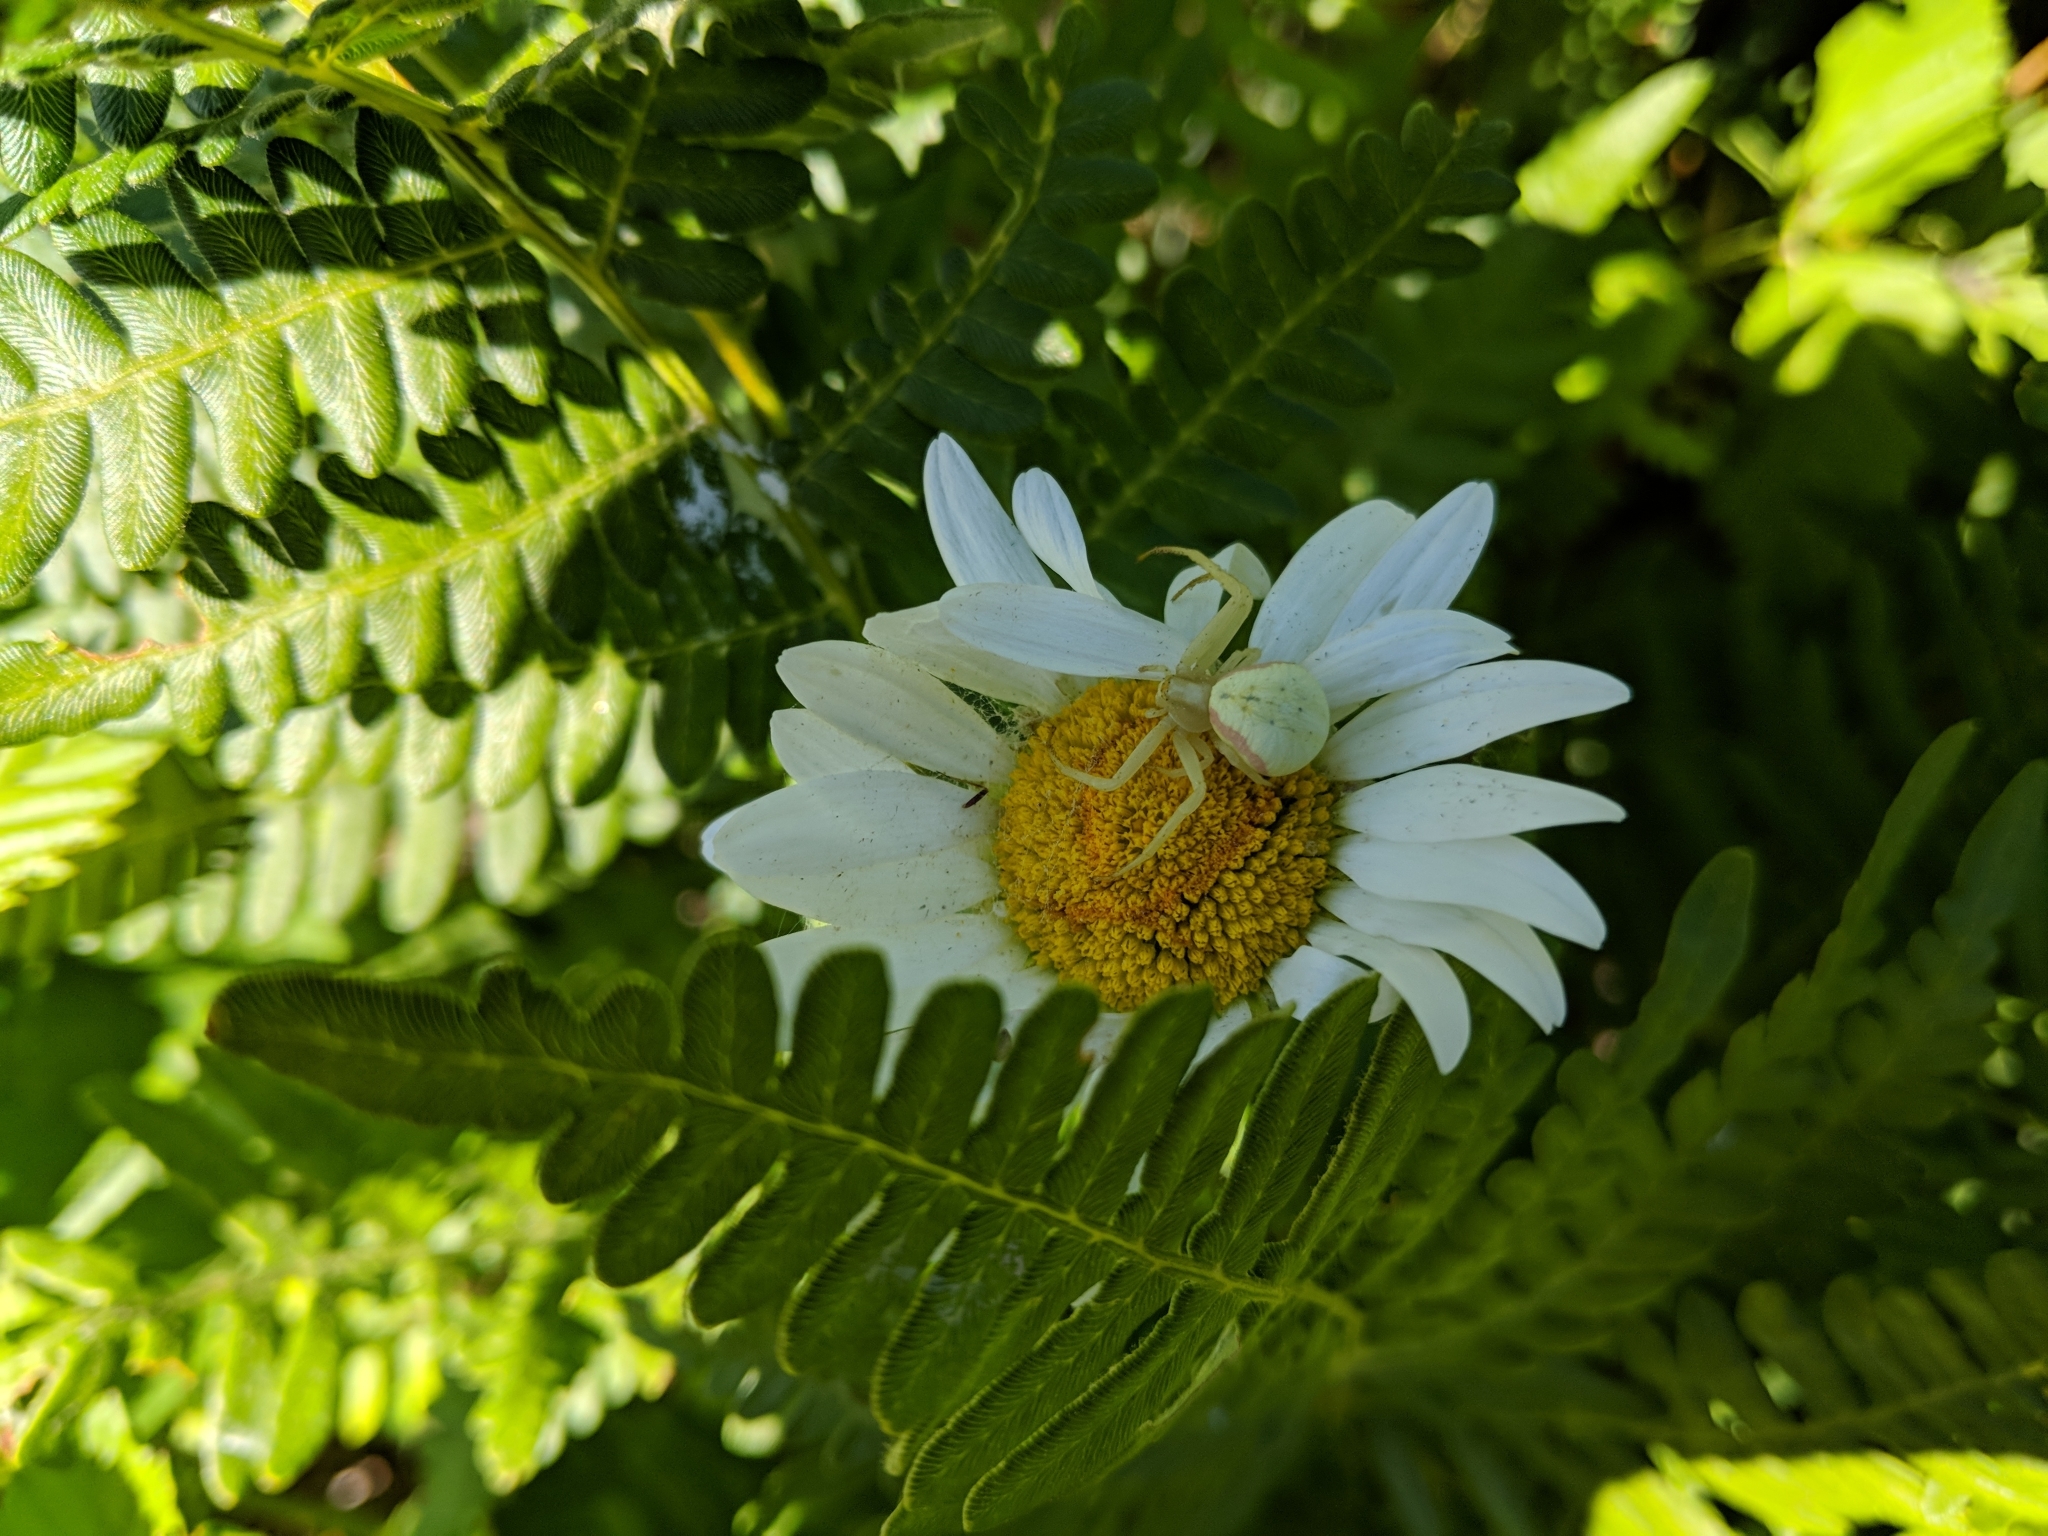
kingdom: Animalia
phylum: Arthropoda
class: Arachnida
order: Araneae
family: Thomisidae
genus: Misumena
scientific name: Misumena vatia
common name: Goldenrod crab spider
